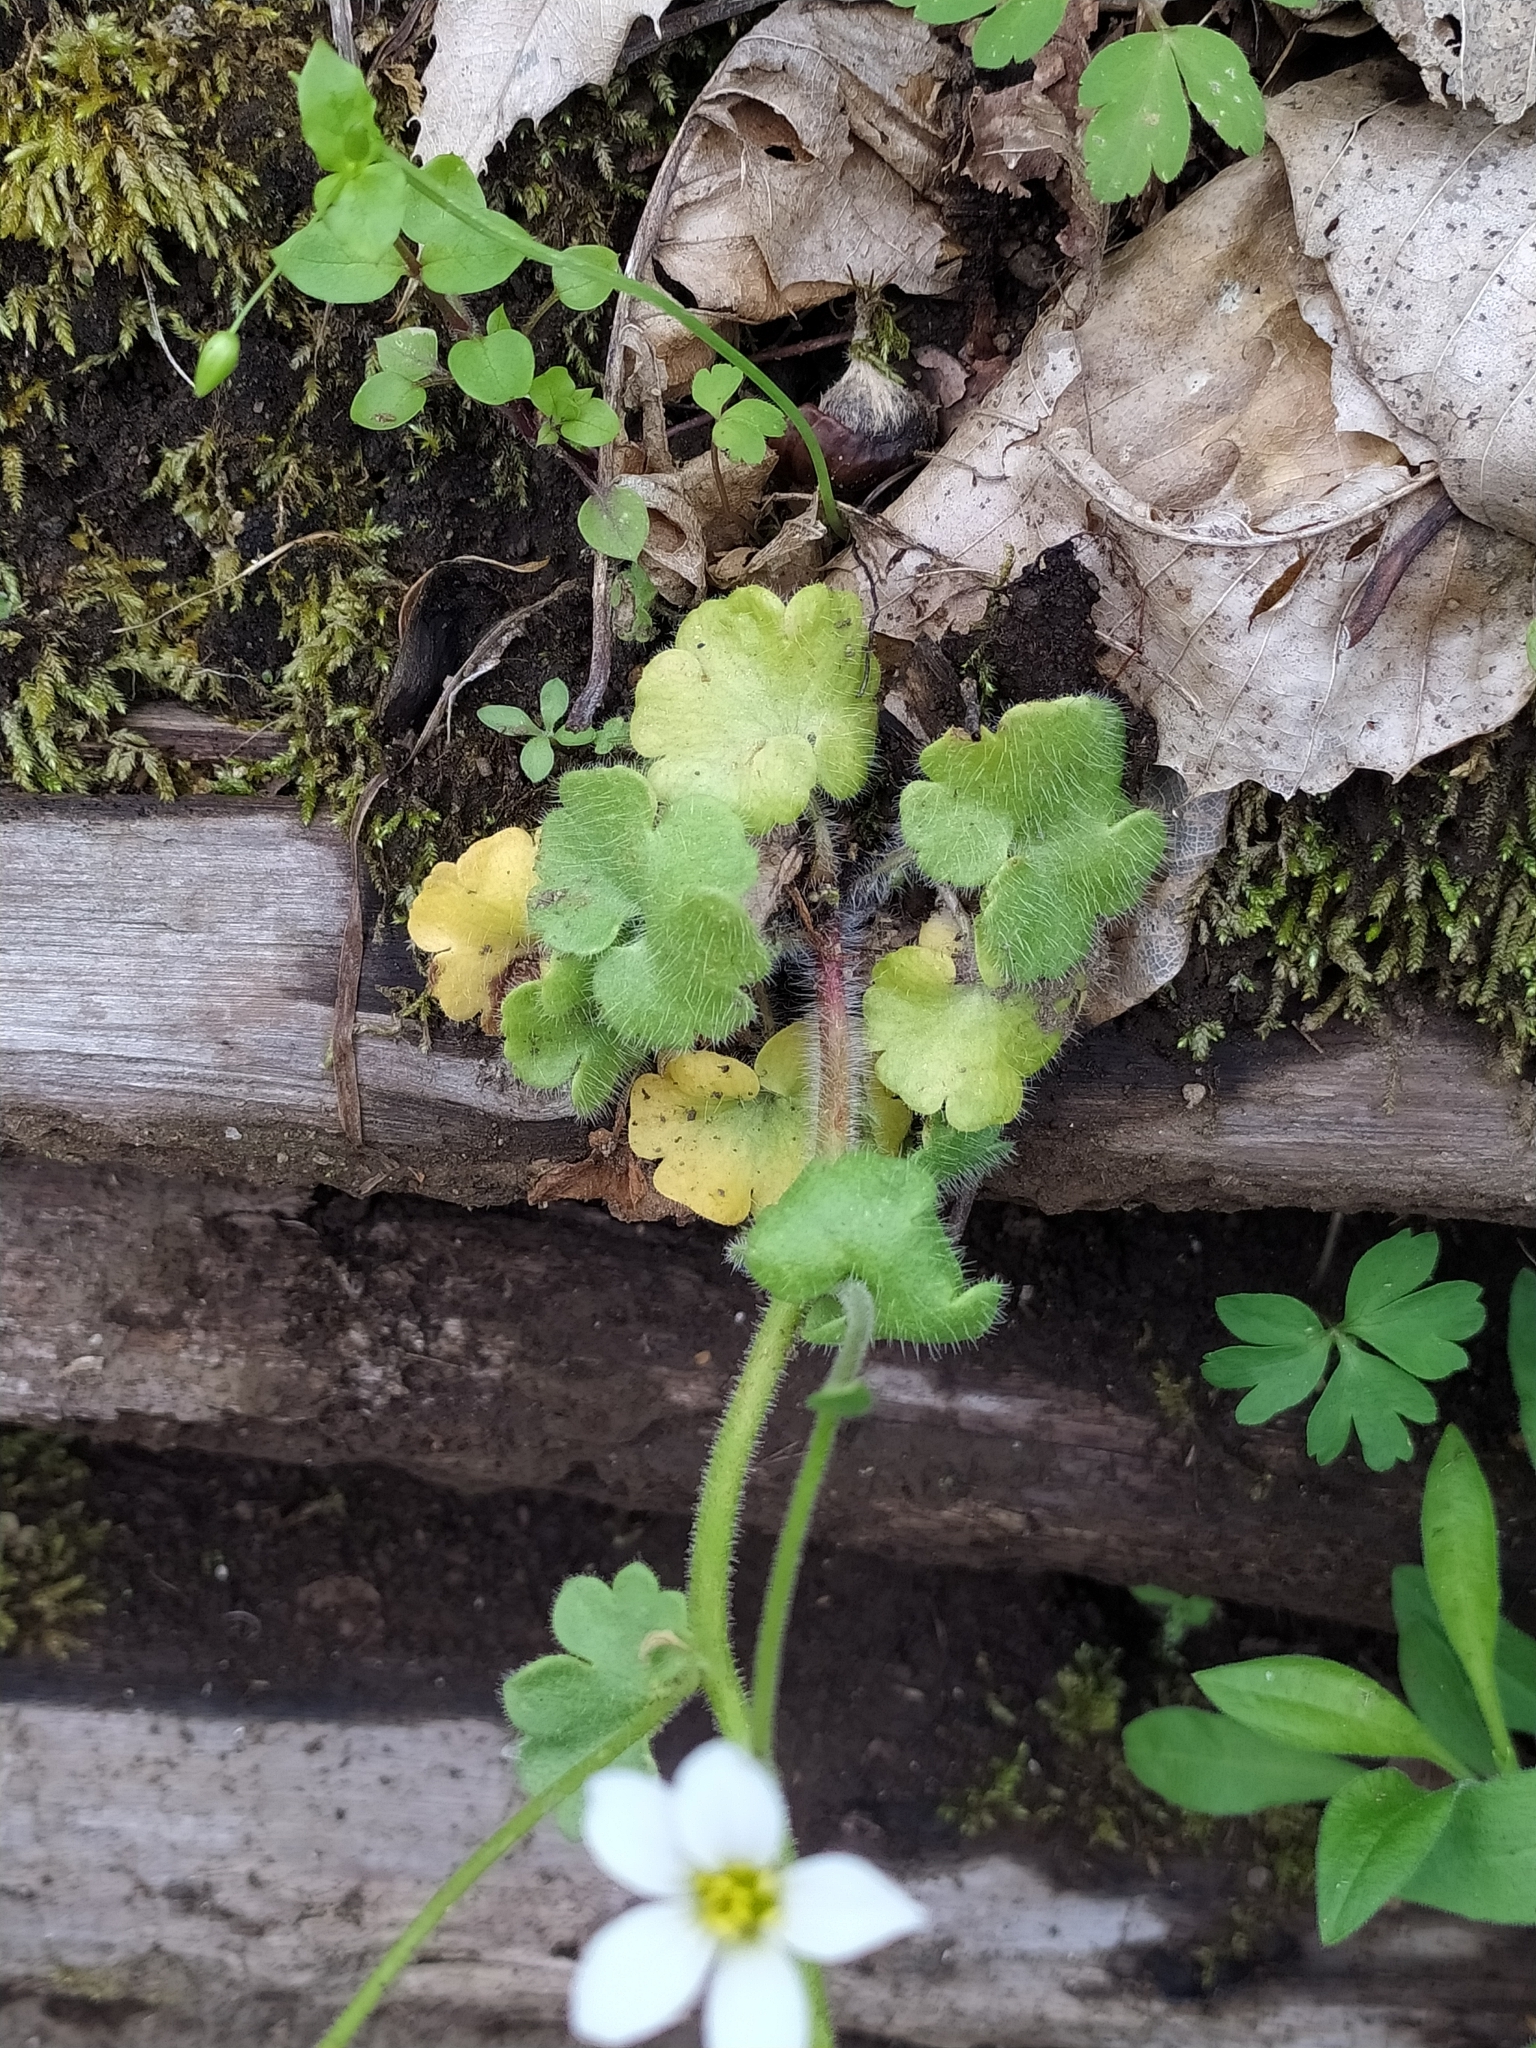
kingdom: Plantae
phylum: Tracheophyta
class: Magnoliopsida
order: Saxifragales
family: Saxifragaceae
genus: Saxifraga
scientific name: Saxifraga granulata
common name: Meadow saxifrage
